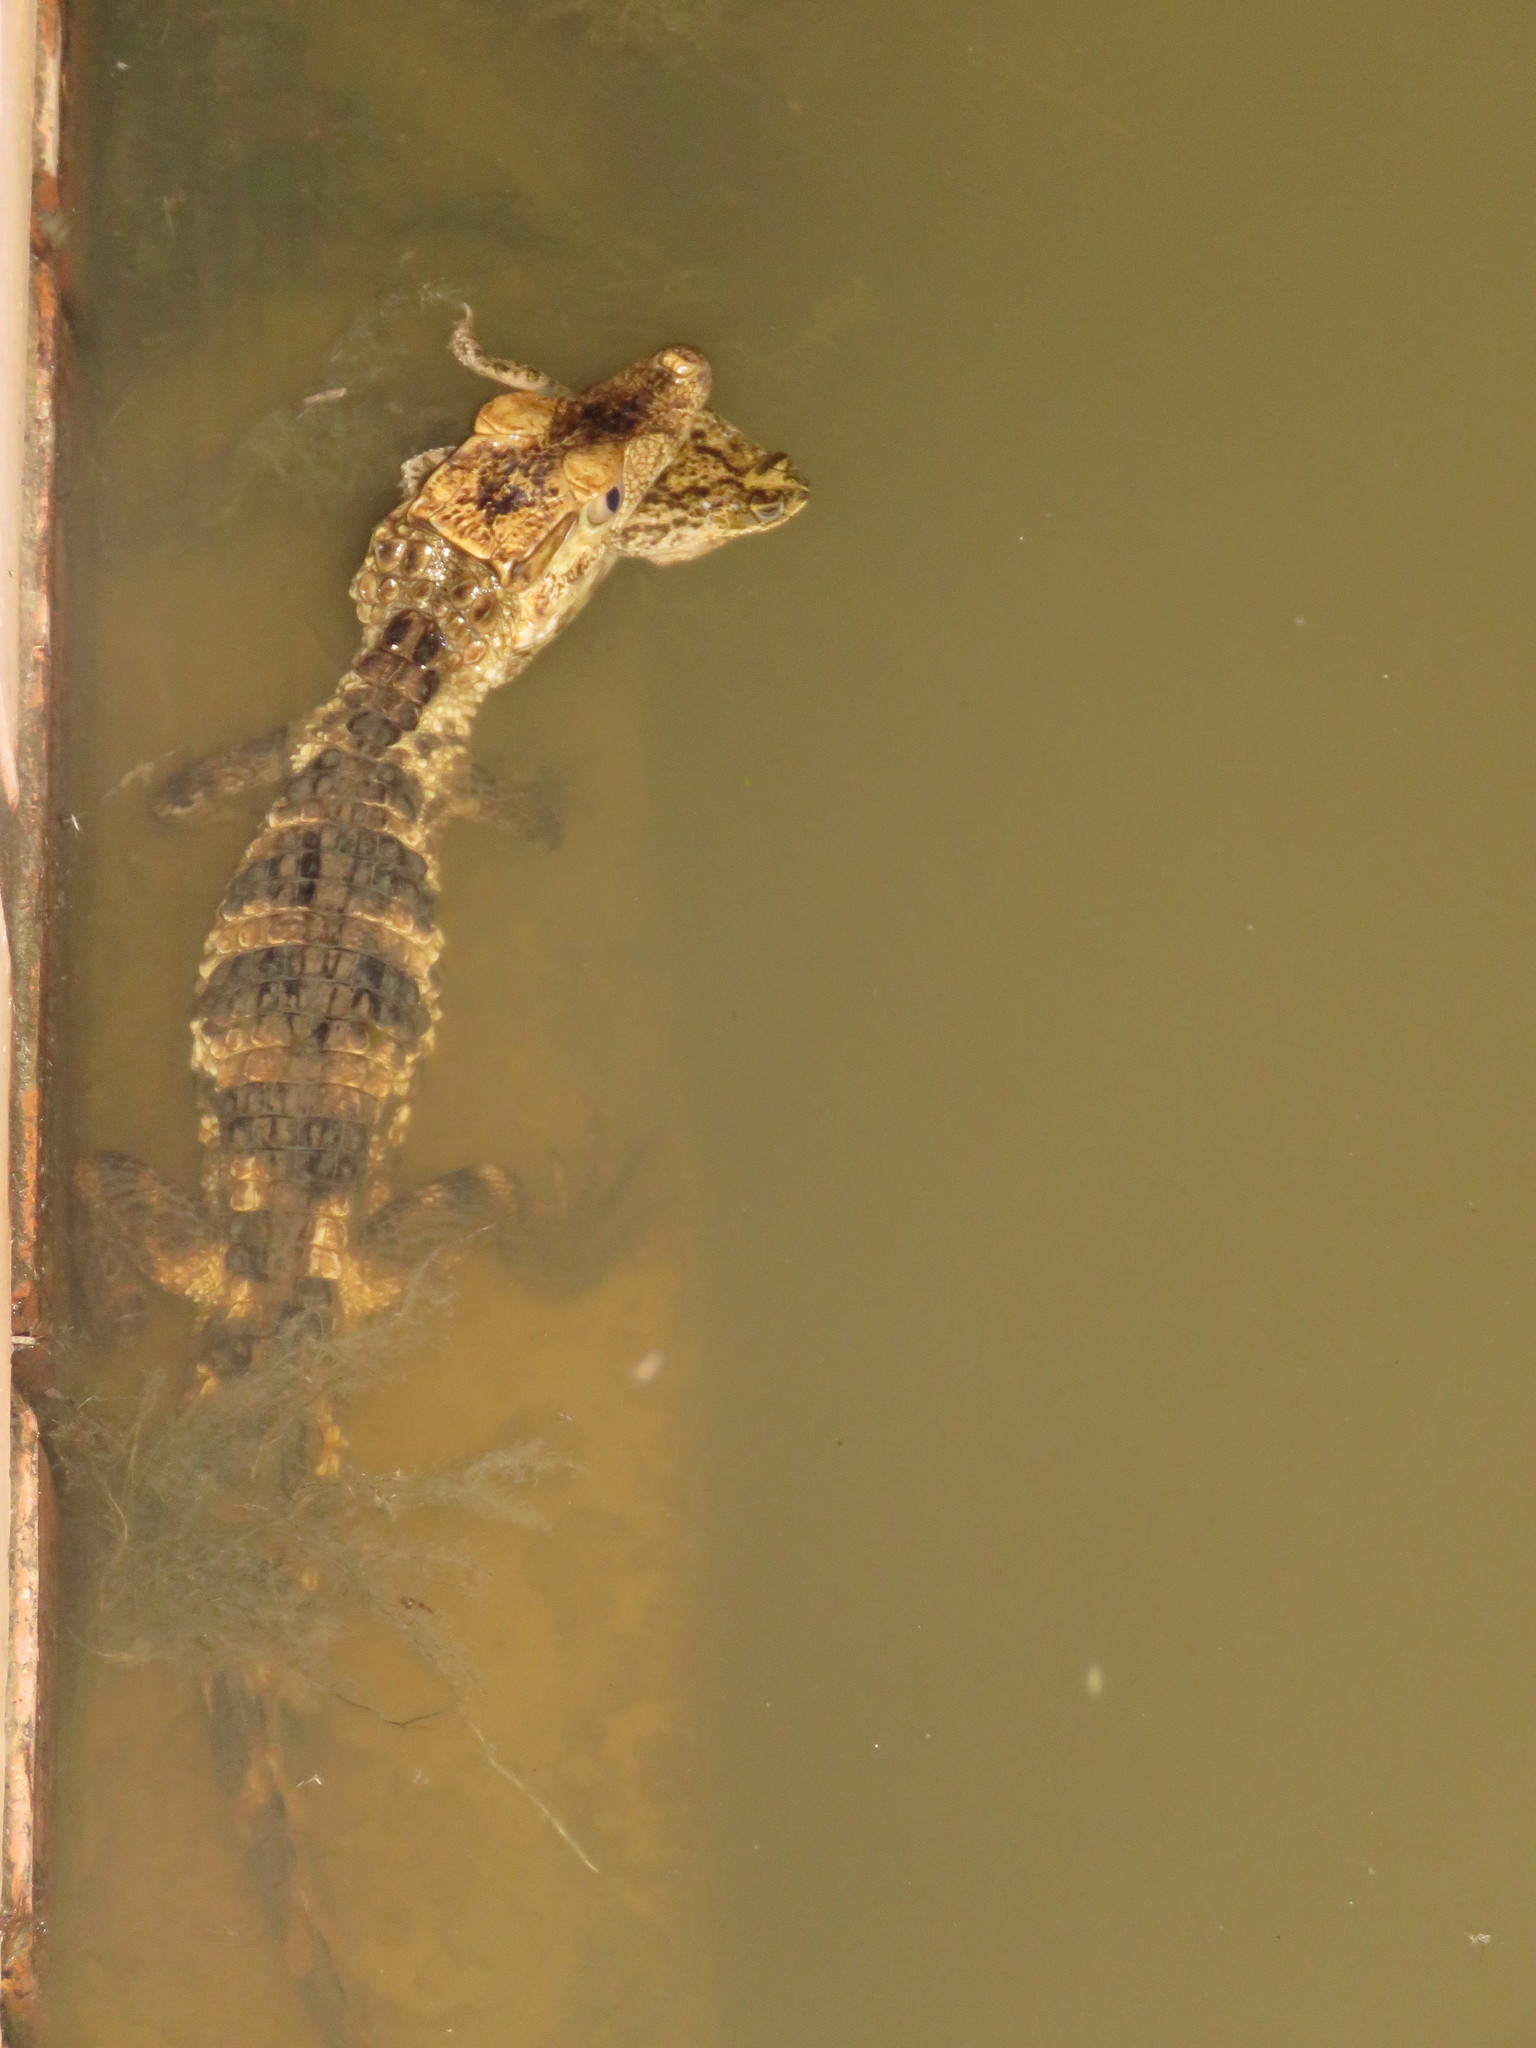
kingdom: Animalia
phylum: Chordata
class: Crocodylia
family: Alligatoridae
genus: Paleosuchus
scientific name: Paleosuchus trigonatus
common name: Schneider's smooth-fronted caiman
